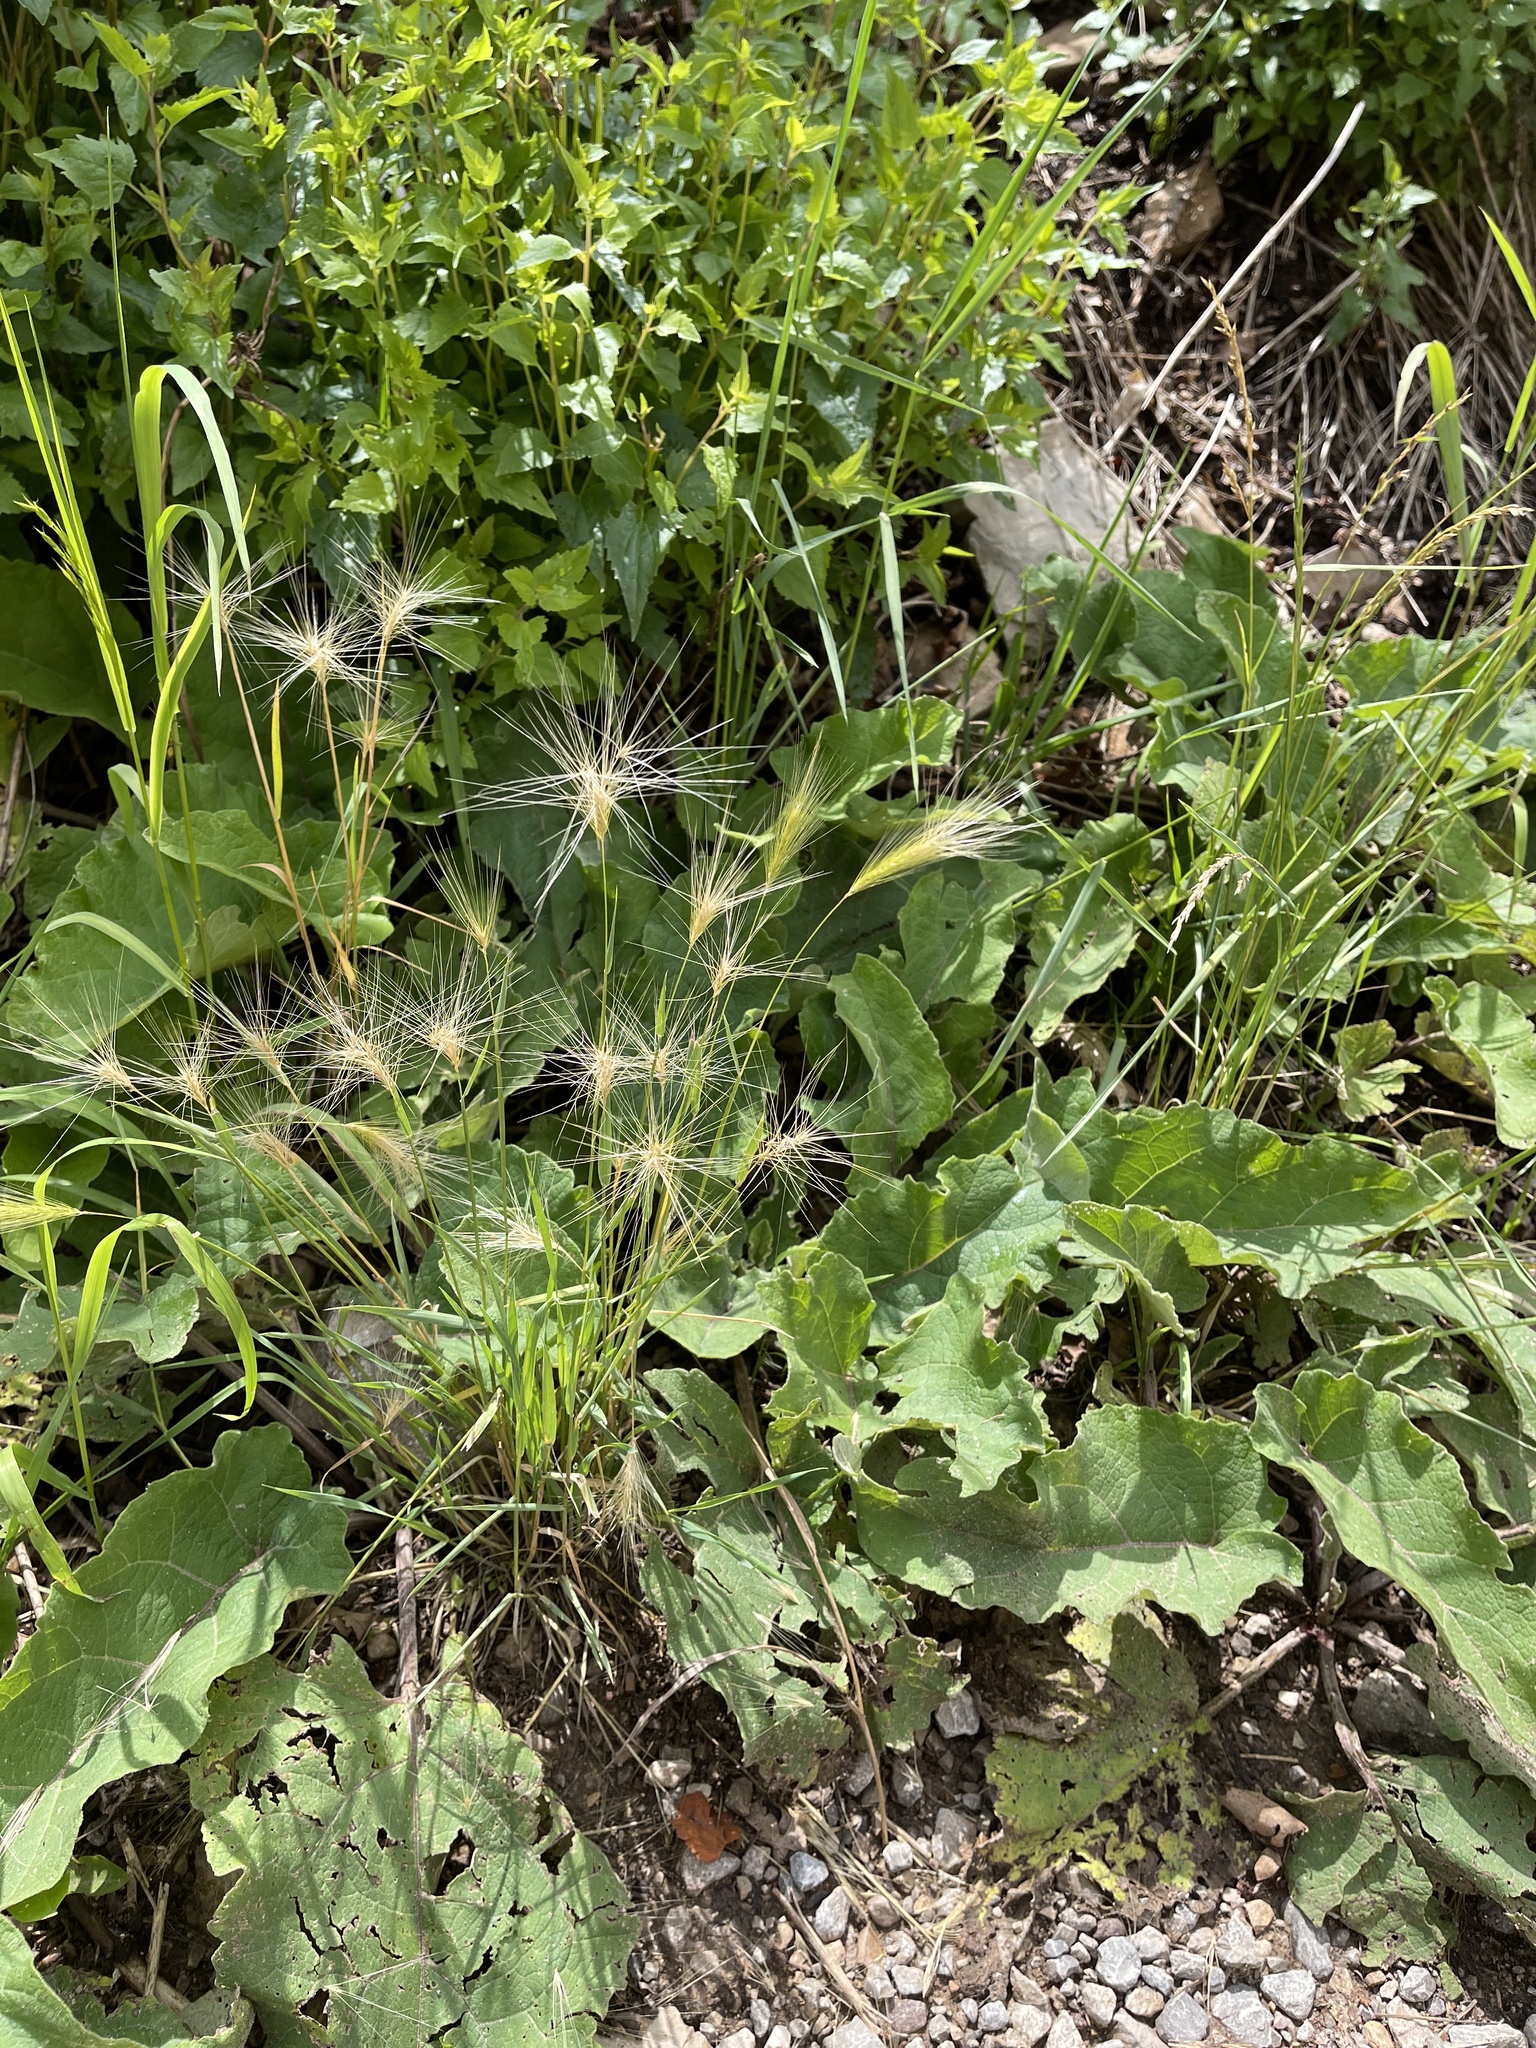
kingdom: Plantae
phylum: Tracheophyta
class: Liliopsida
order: Poales
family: Poaceae
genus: Hordeum
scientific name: Hordeum jubatum
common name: Foxtail barley
